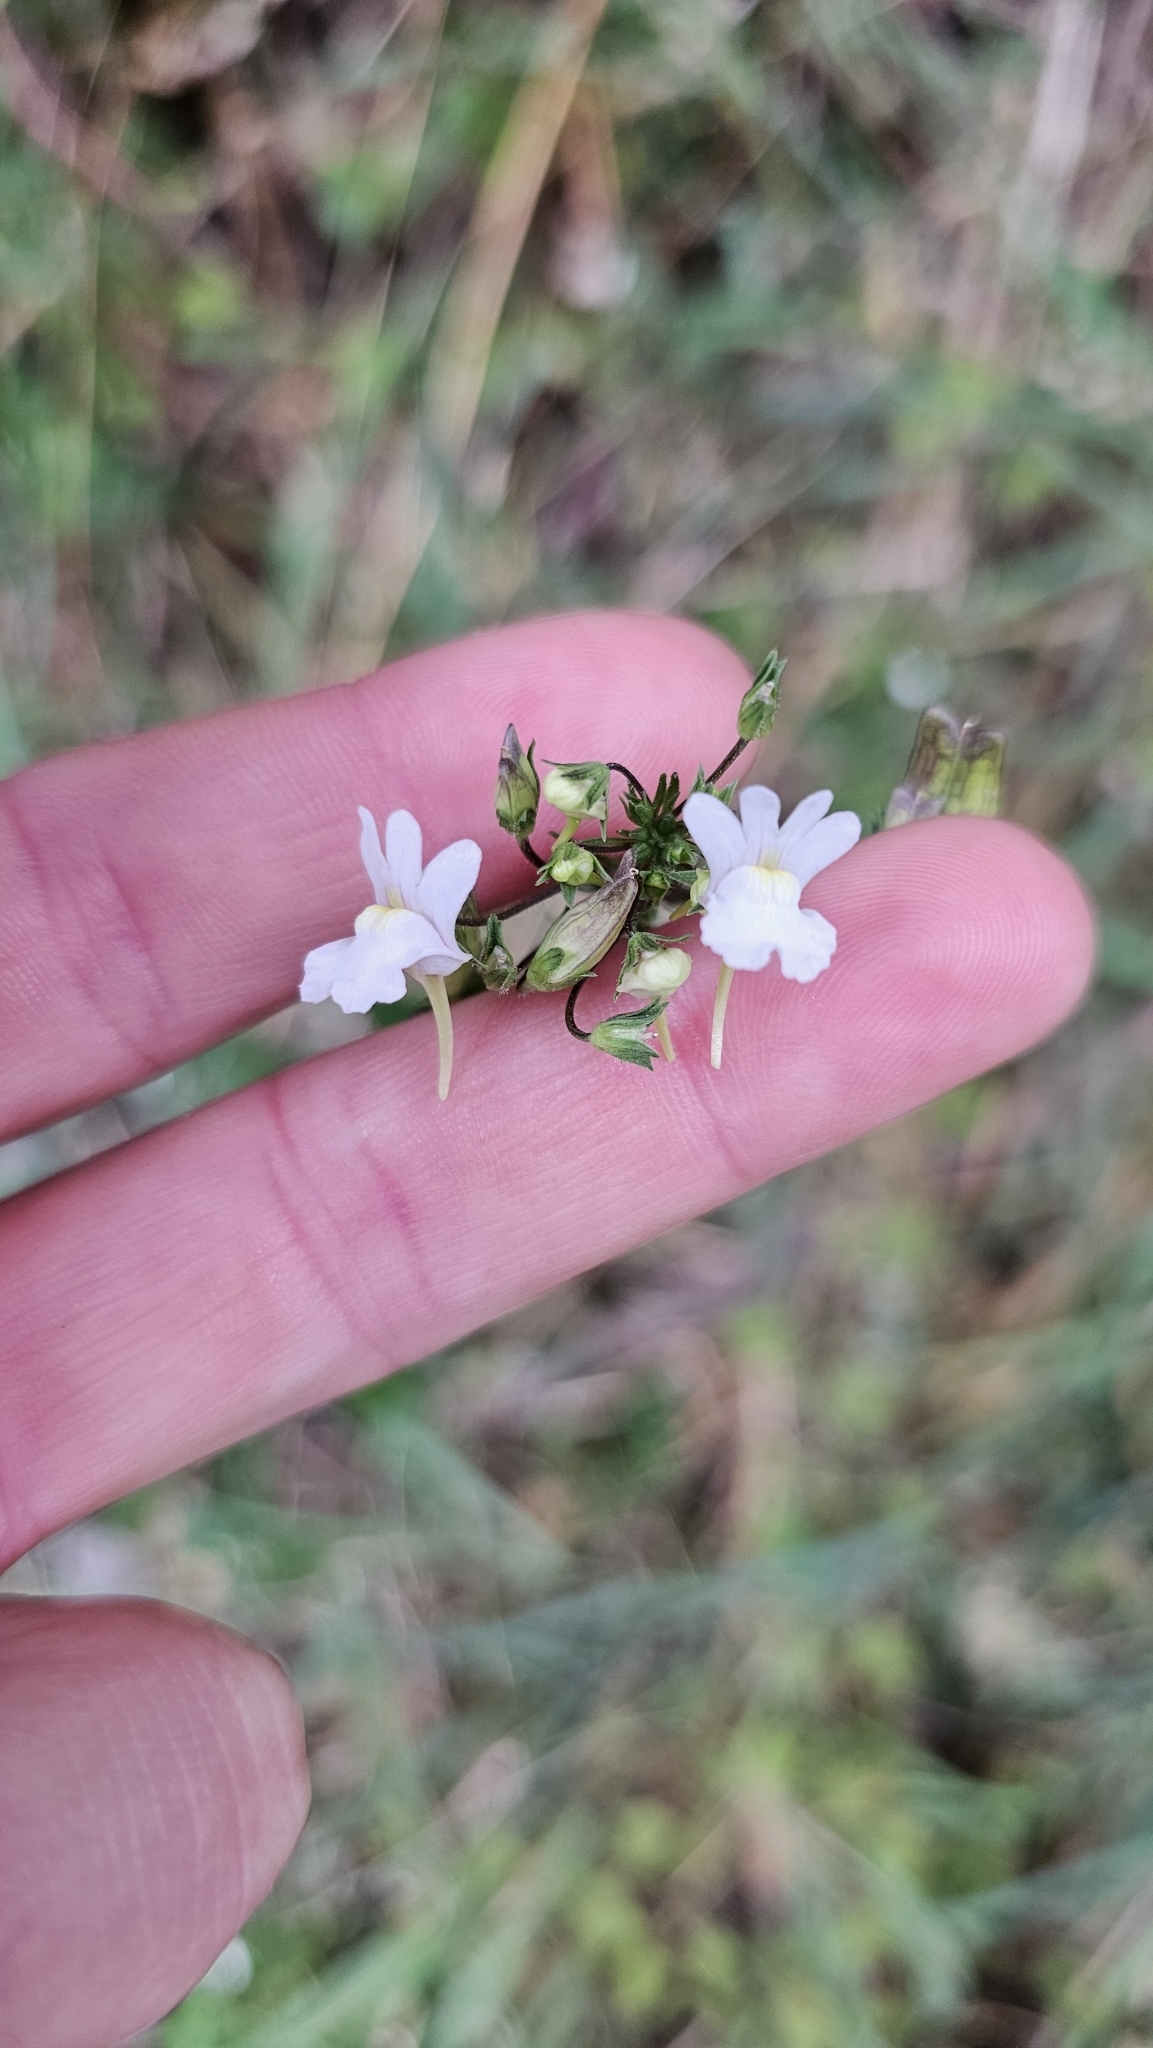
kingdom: Plantae
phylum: Tracheophyta
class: Magnoliopsida
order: Lamiales
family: Scrophulariaceae
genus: Nemesia
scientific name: Nemesia floribunda
